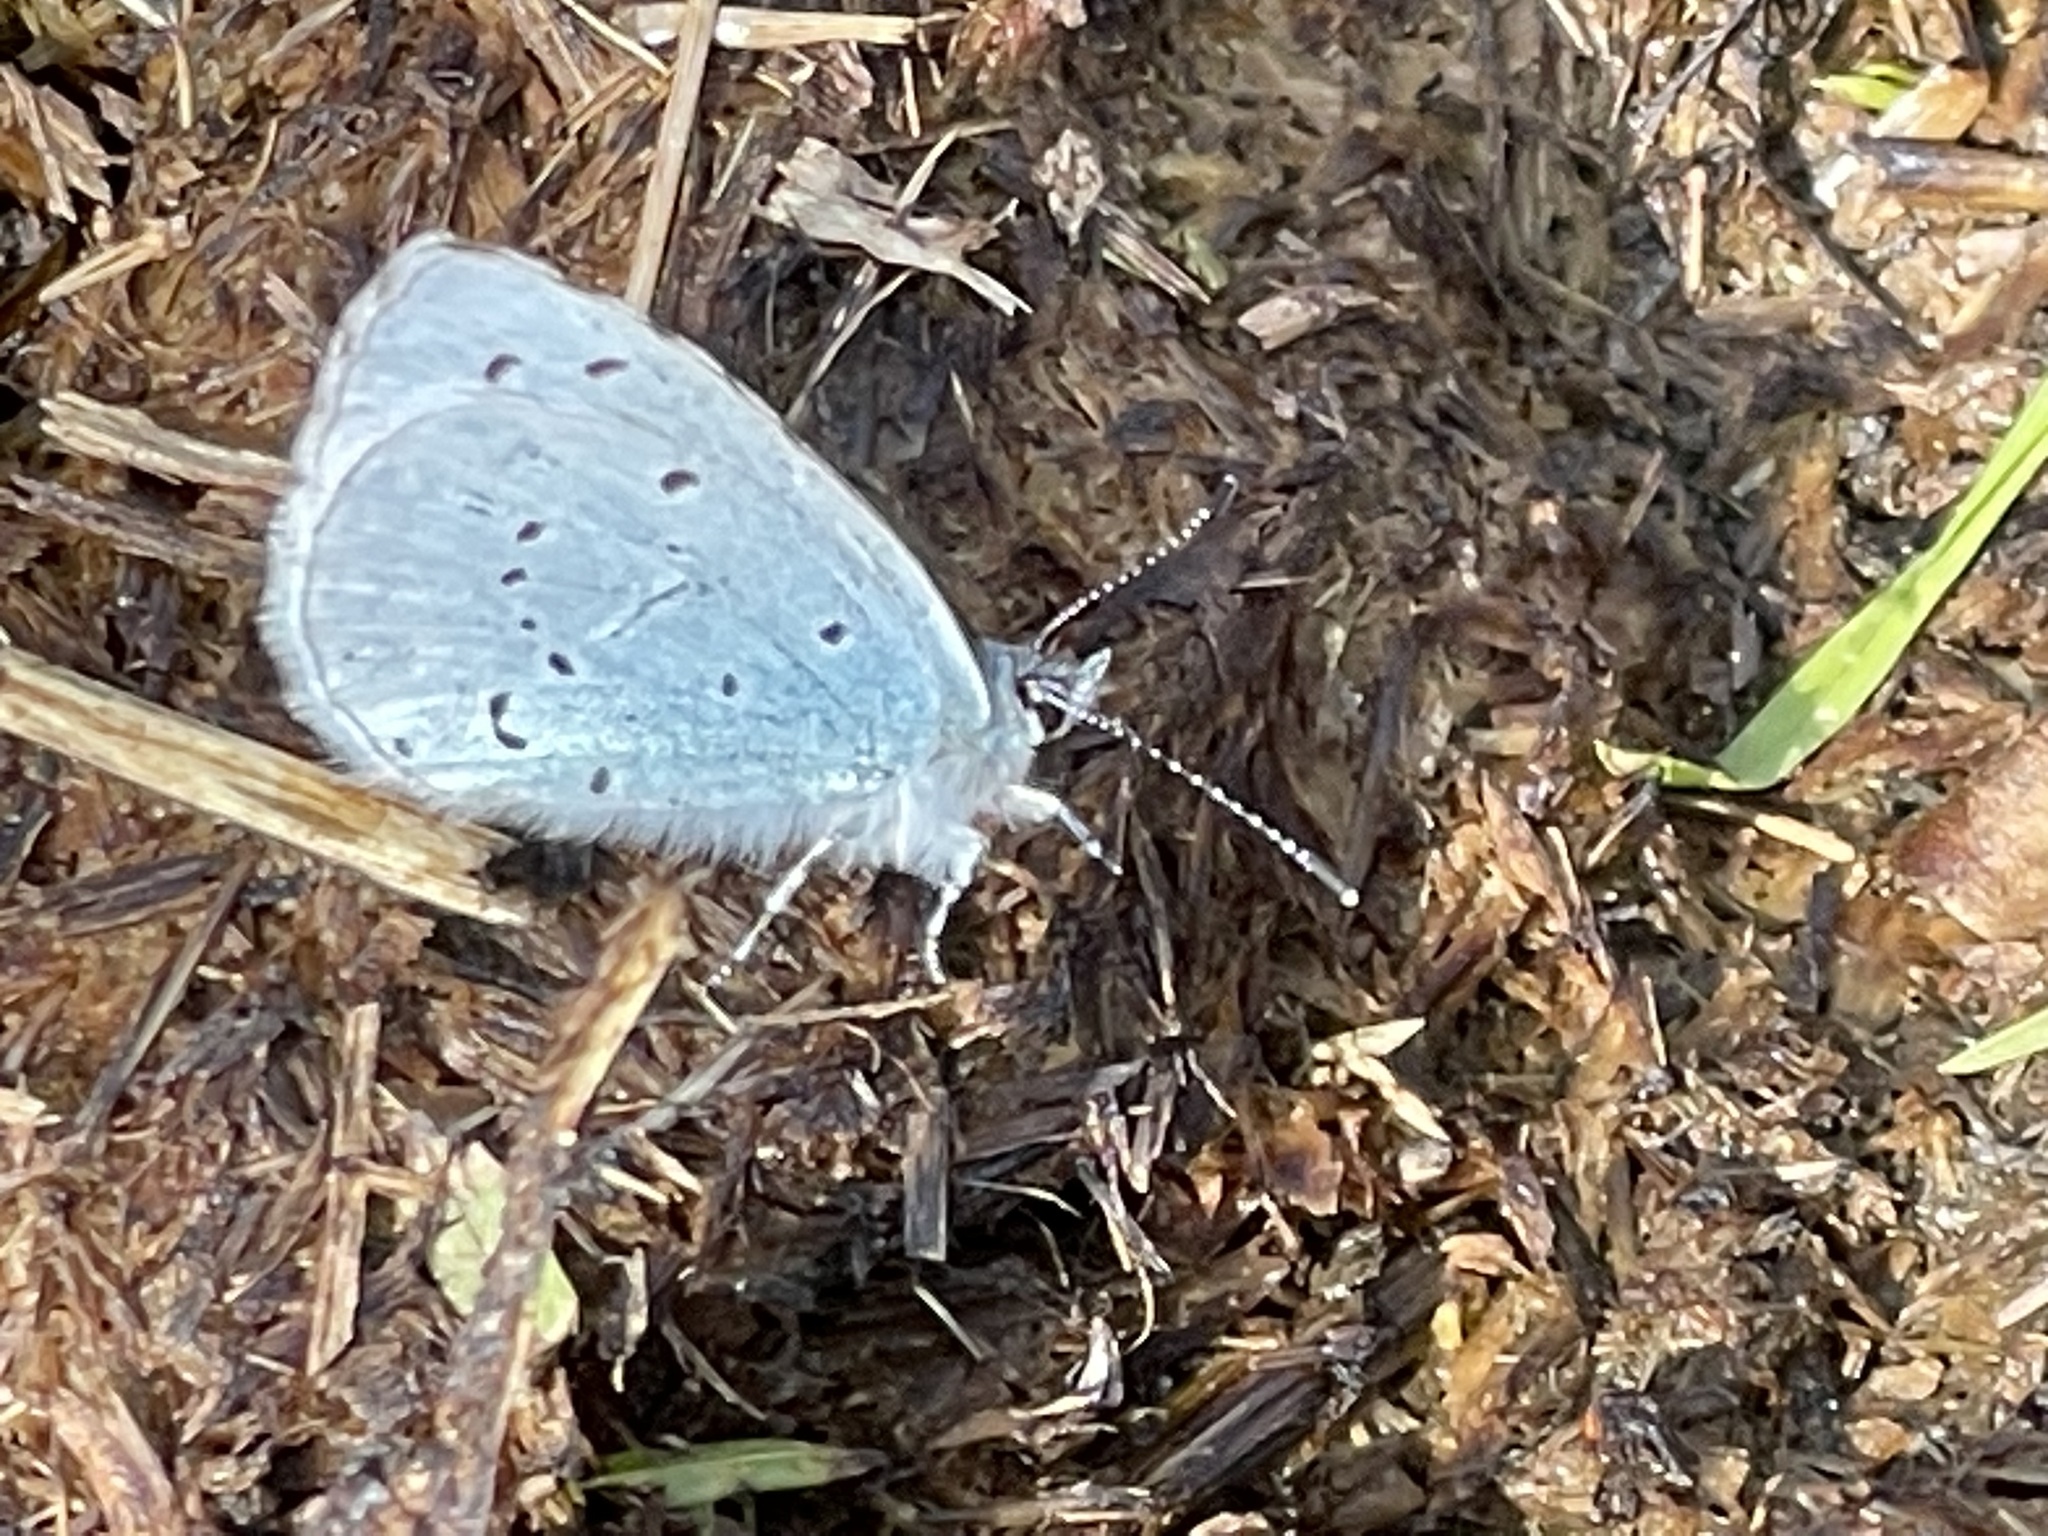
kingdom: Animalia
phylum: Arthropoda
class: Insecta
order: Lepidoptera
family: Lycaenidae
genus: Celastrina
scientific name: Celastrina argiolus
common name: Holly blue
